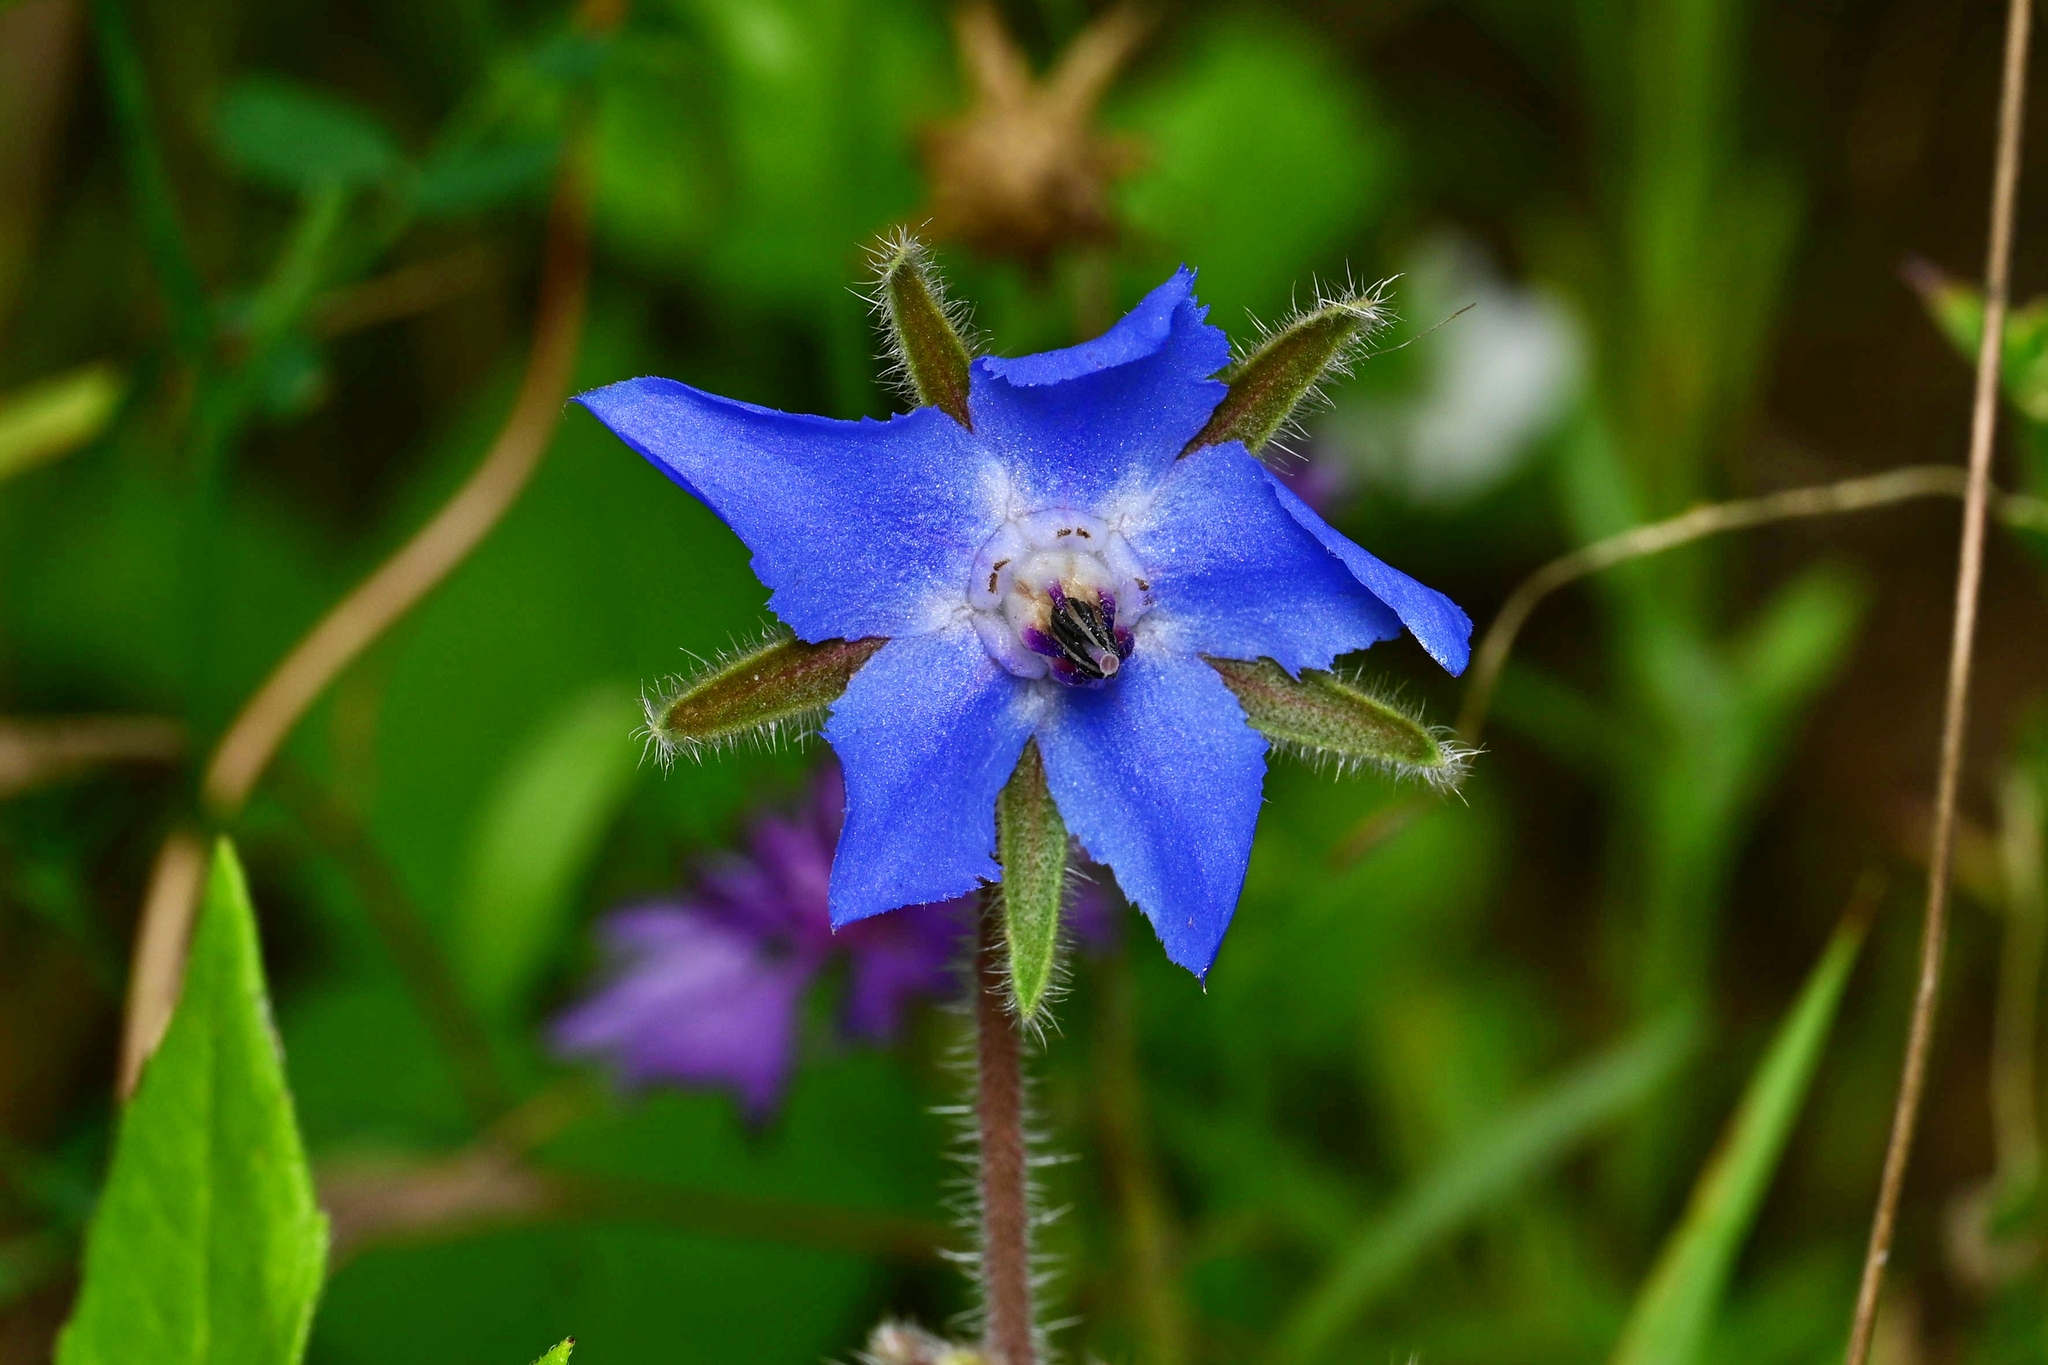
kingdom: Plantae
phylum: Tracheophyta
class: Magnoliopsida
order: Boraginales
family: Boraginaceae
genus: Borago
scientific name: Borago officinalis
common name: Borage
